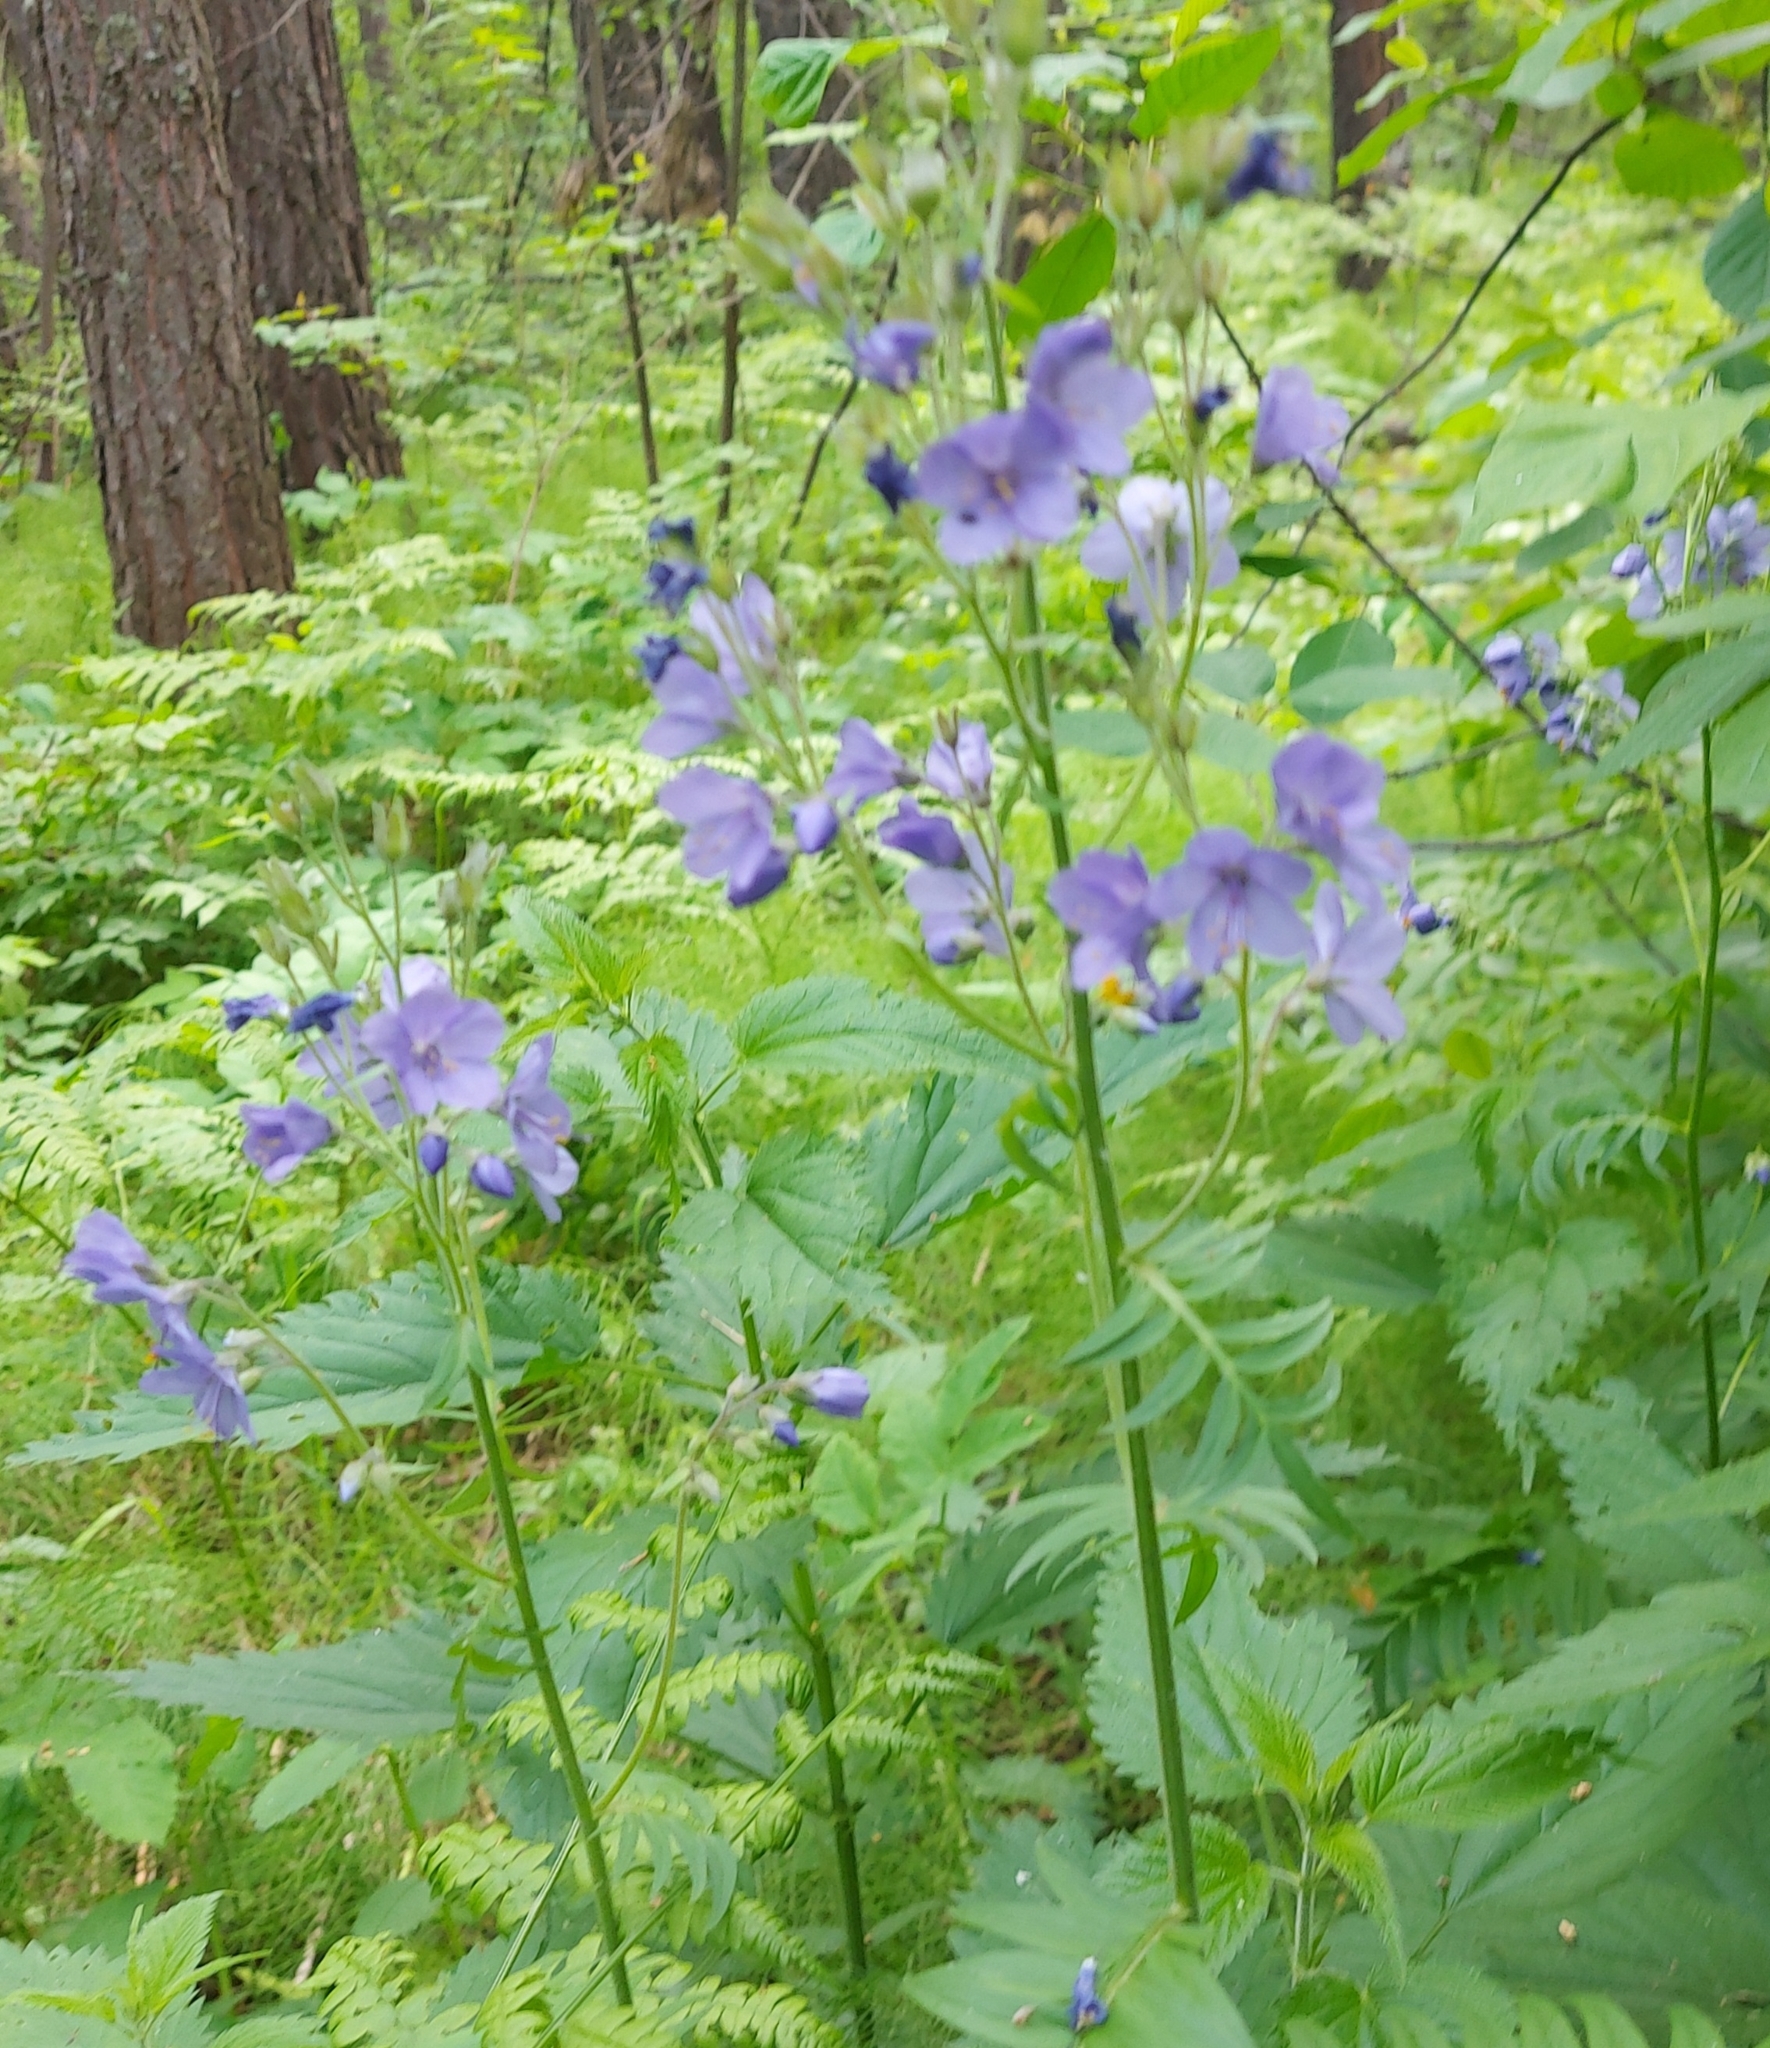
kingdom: Plantae
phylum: Tracheophyta
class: Magnoliopsida
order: Ericales
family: Polemoniaceae
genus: Polemonium
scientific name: Polemonium caeruleum
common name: Jacob's-ladder
